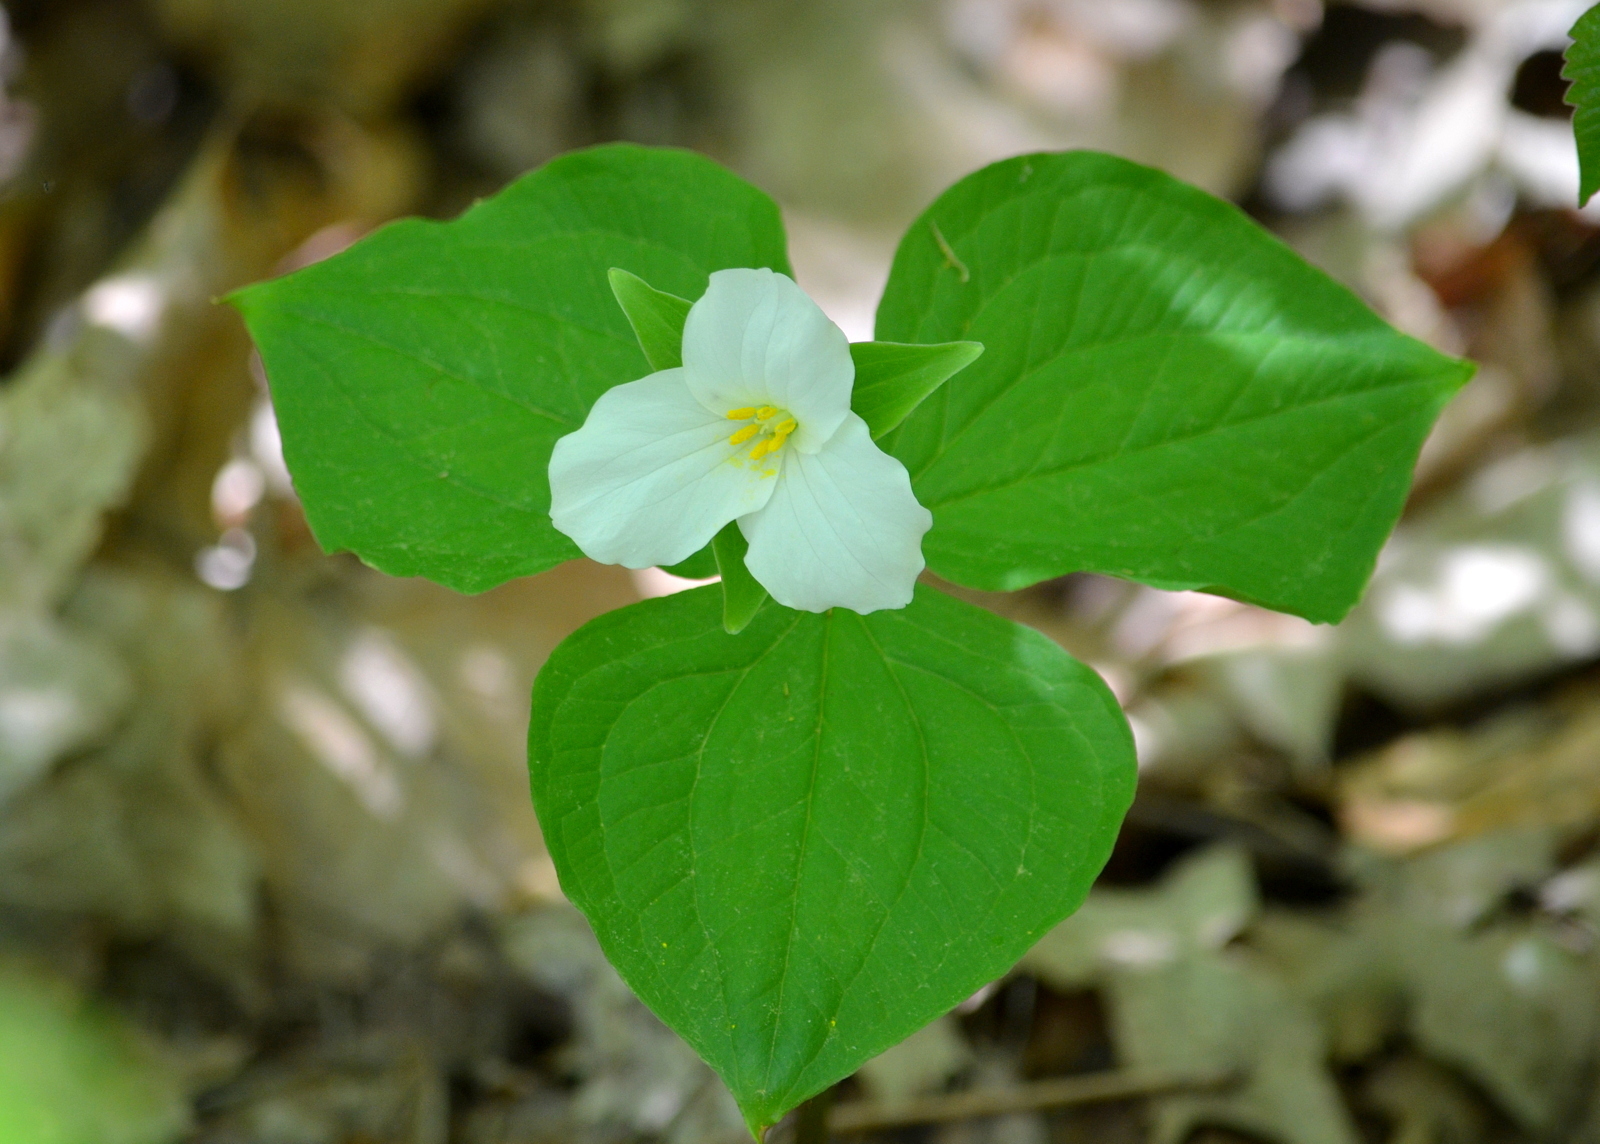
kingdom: Plantae
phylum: Tracheophyta
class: Liliopsida
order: Liliales
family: Melanthiaceae
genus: Trillium
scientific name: Trillium grandiflorum
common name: Great white trillium
